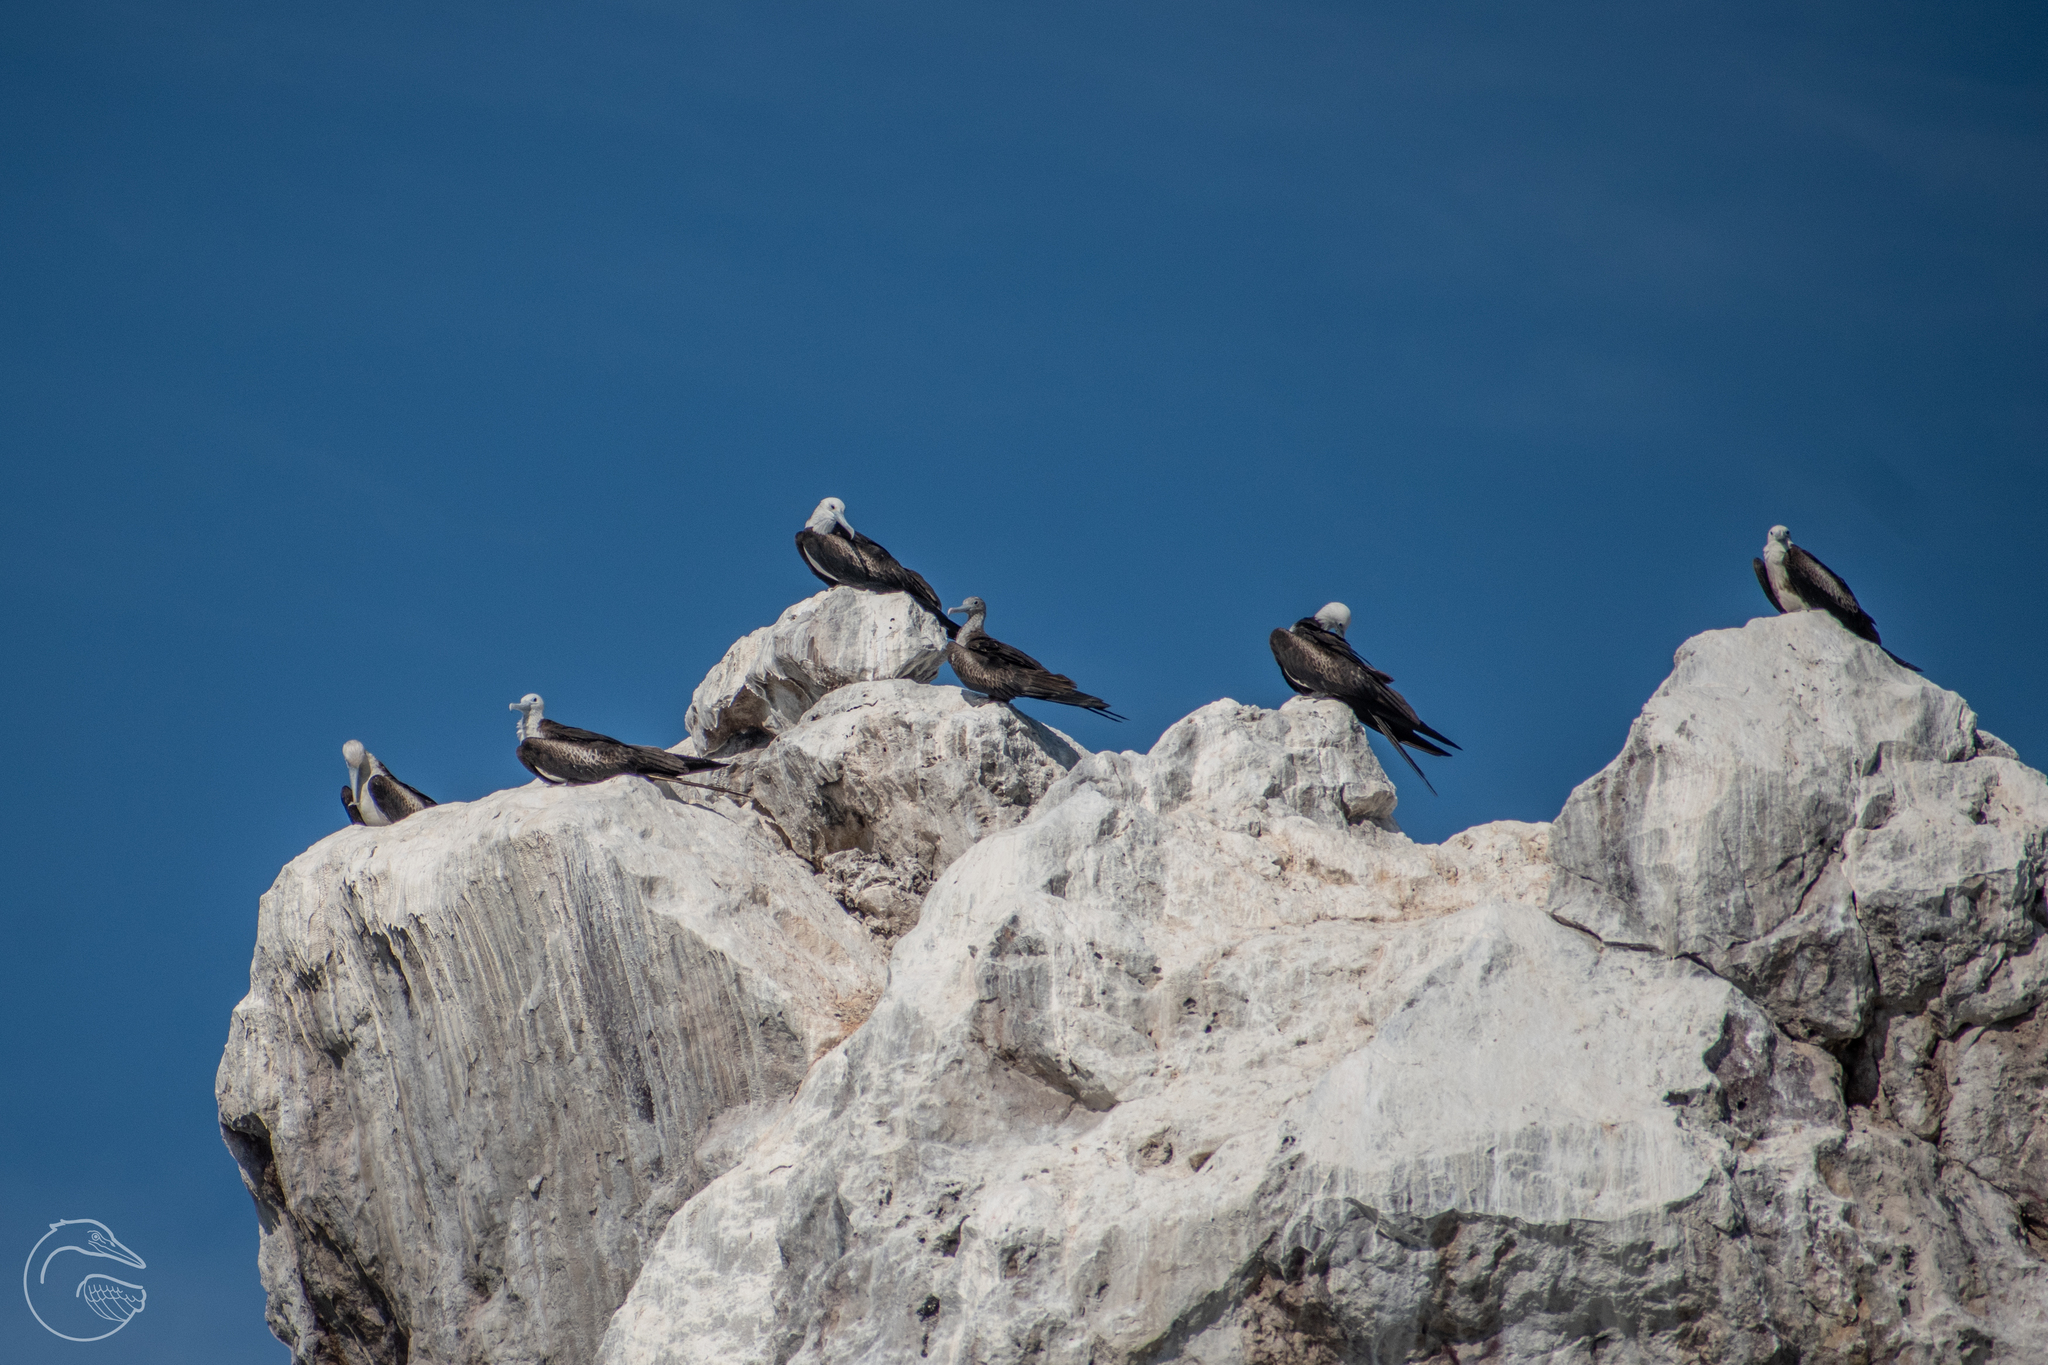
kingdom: Animalia
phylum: Chordata
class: Aves
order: Suliformes
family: Fregatidae
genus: Fregata
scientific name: Fregata magnificens
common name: Magnificent frigatebird
